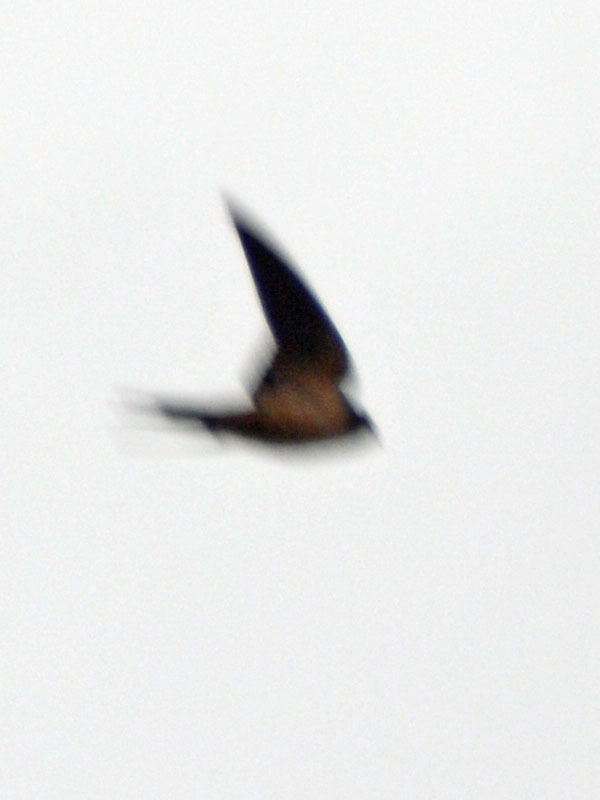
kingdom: Animalia
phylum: Chordata
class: Aves
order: Passeriformes
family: Hirundinidae
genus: Hirundo
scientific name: Hirundo rustica
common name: Barn swallow
